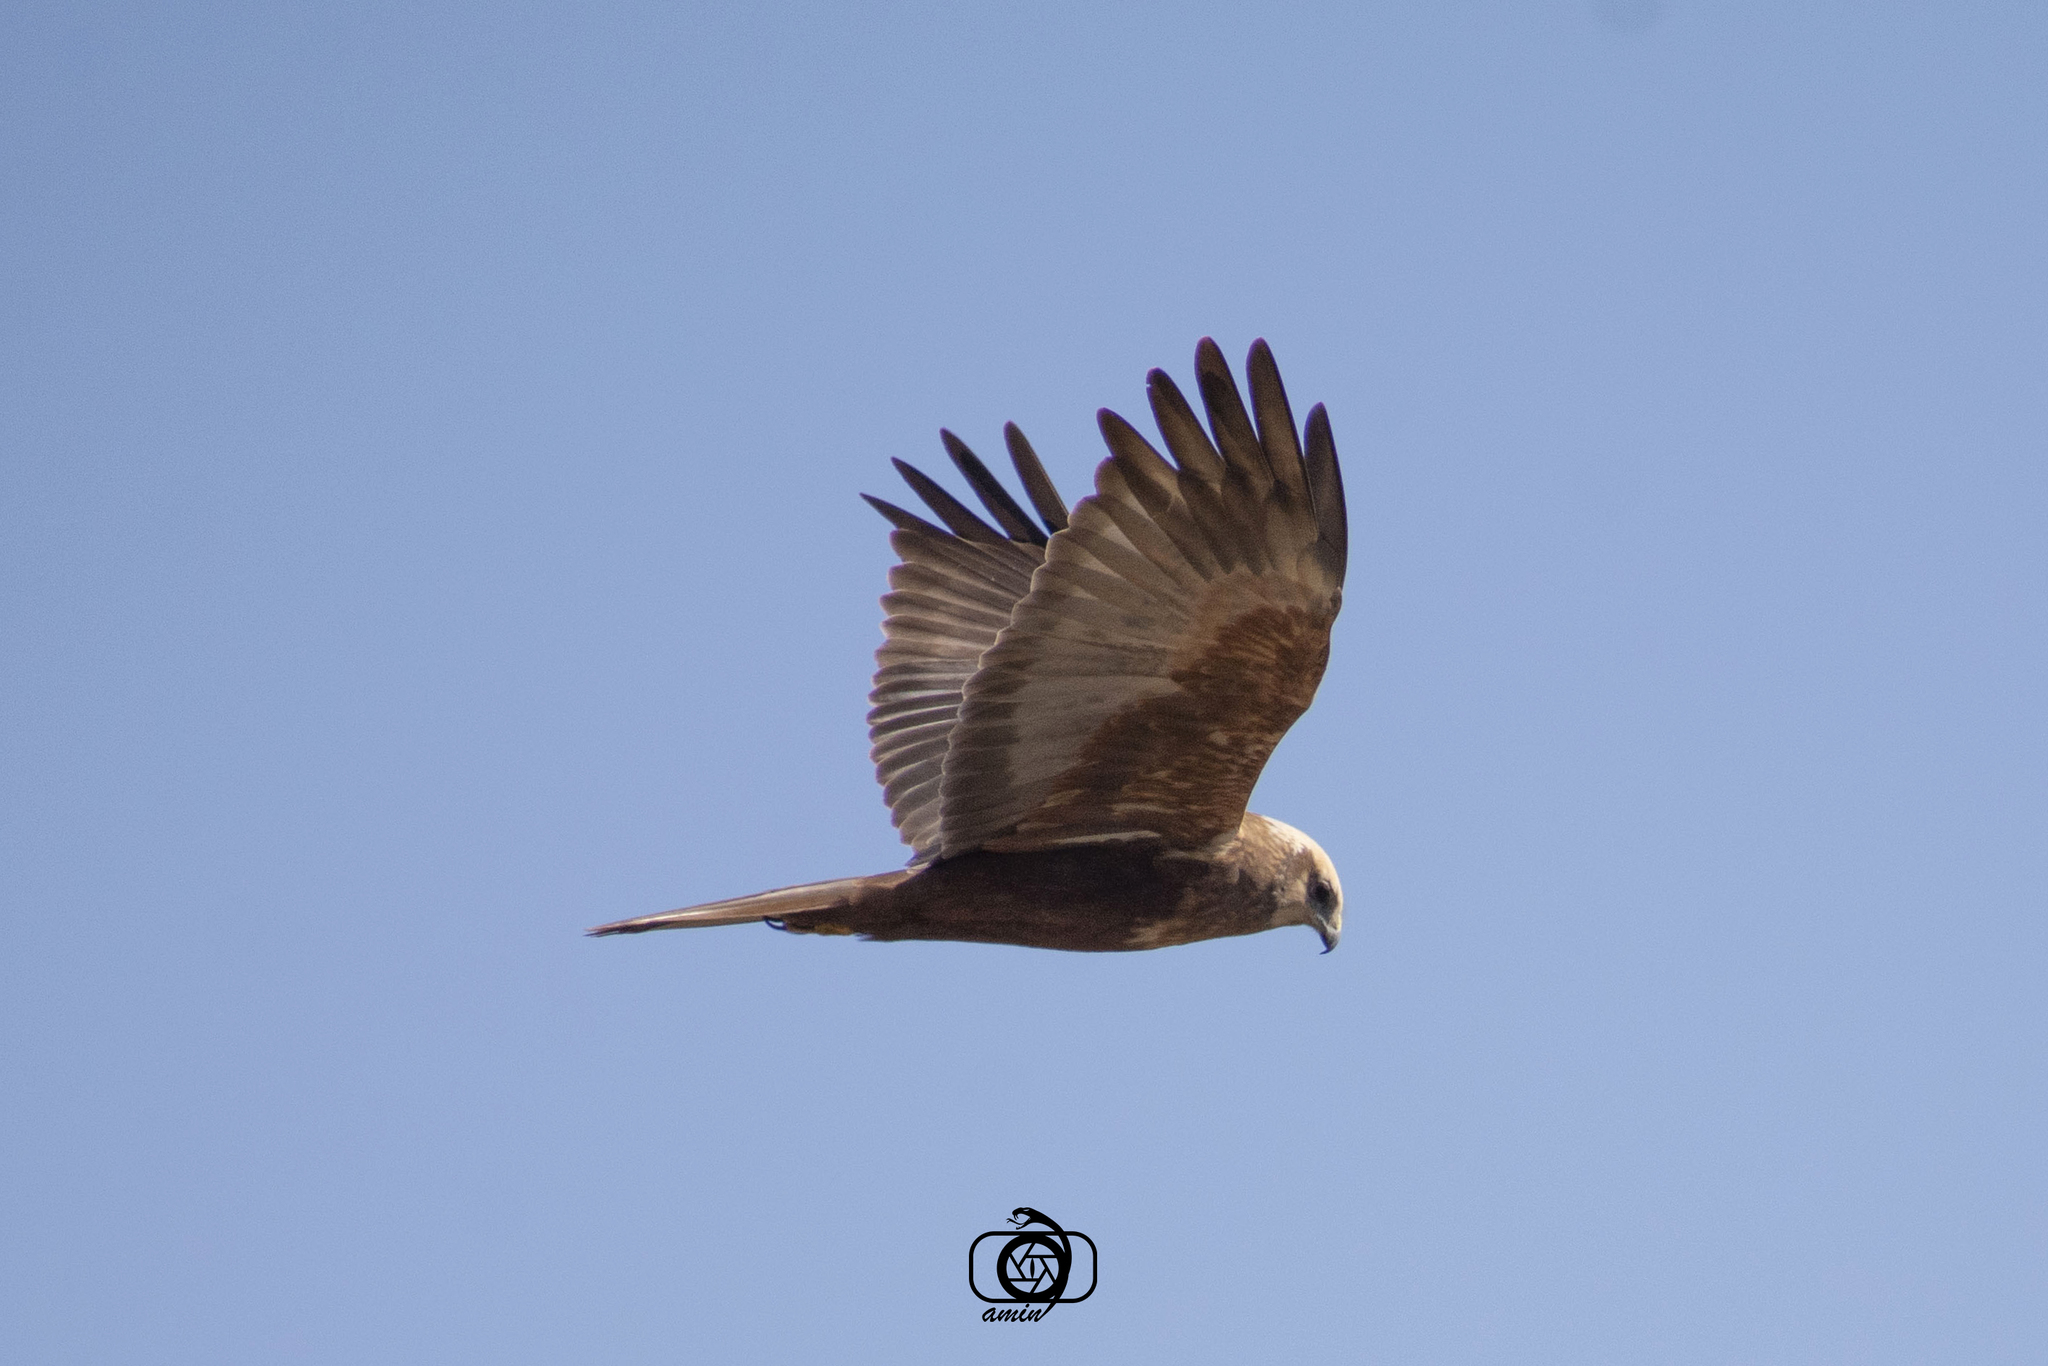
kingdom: Animalia
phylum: Chordata
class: Aves
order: Accipitriformes
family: Accipitridae
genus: Circus
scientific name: Circus aeruginosus
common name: Western marsh harrier
